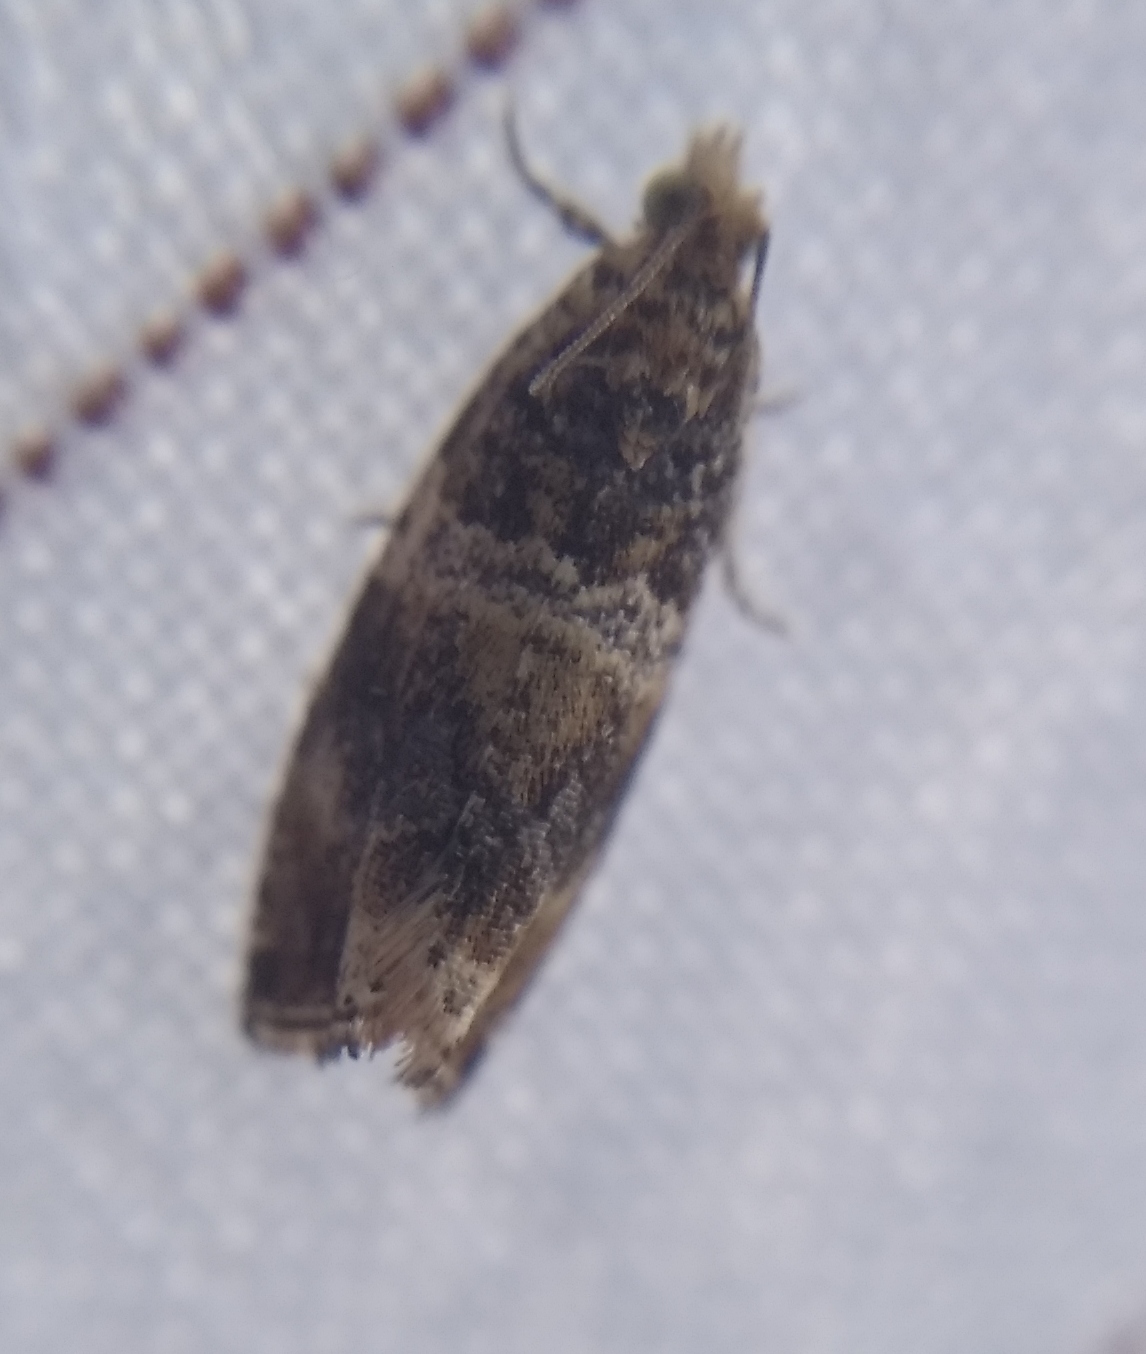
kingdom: Animalia
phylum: Arthropoda
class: Insecta
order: Lepidoptera
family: Tortricidae
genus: Celypha
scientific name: Celypha flavipalpana
